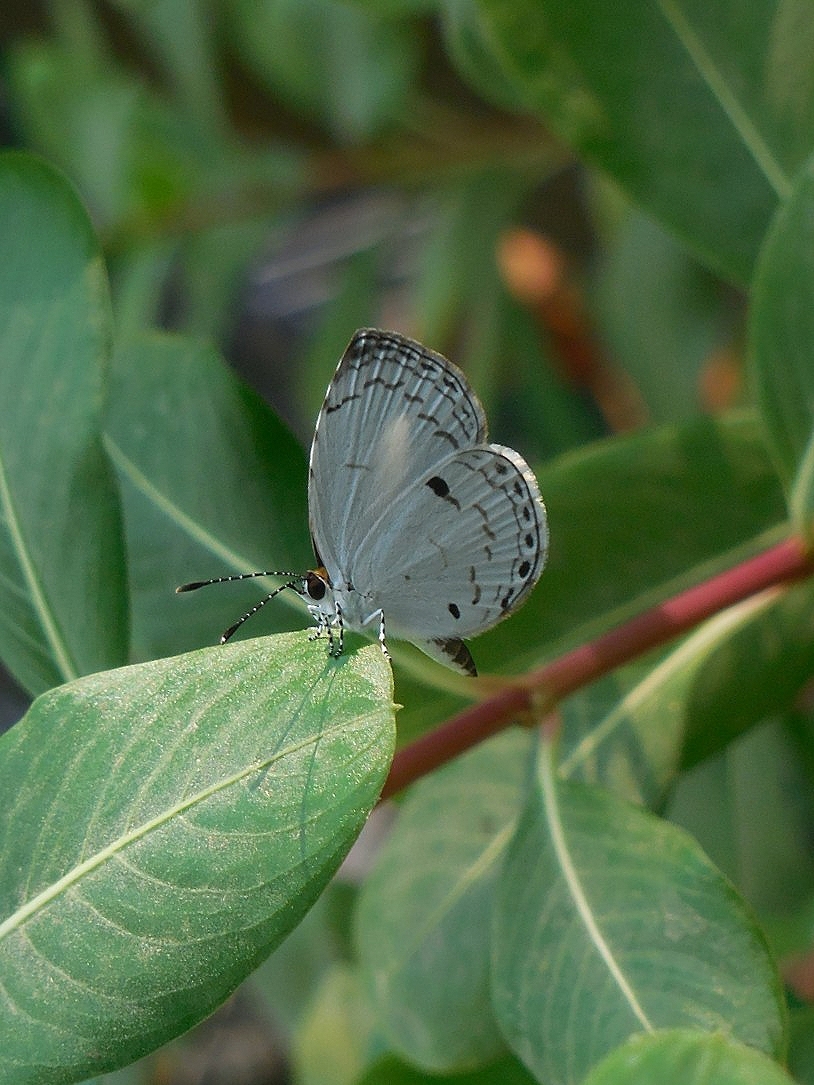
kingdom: Animalia
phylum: Arthropoda
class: Insecta
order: Lepidoptera
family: Lycaenidae
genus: Neopithecops
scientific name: Neopithecops zalmora
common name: Quaker
